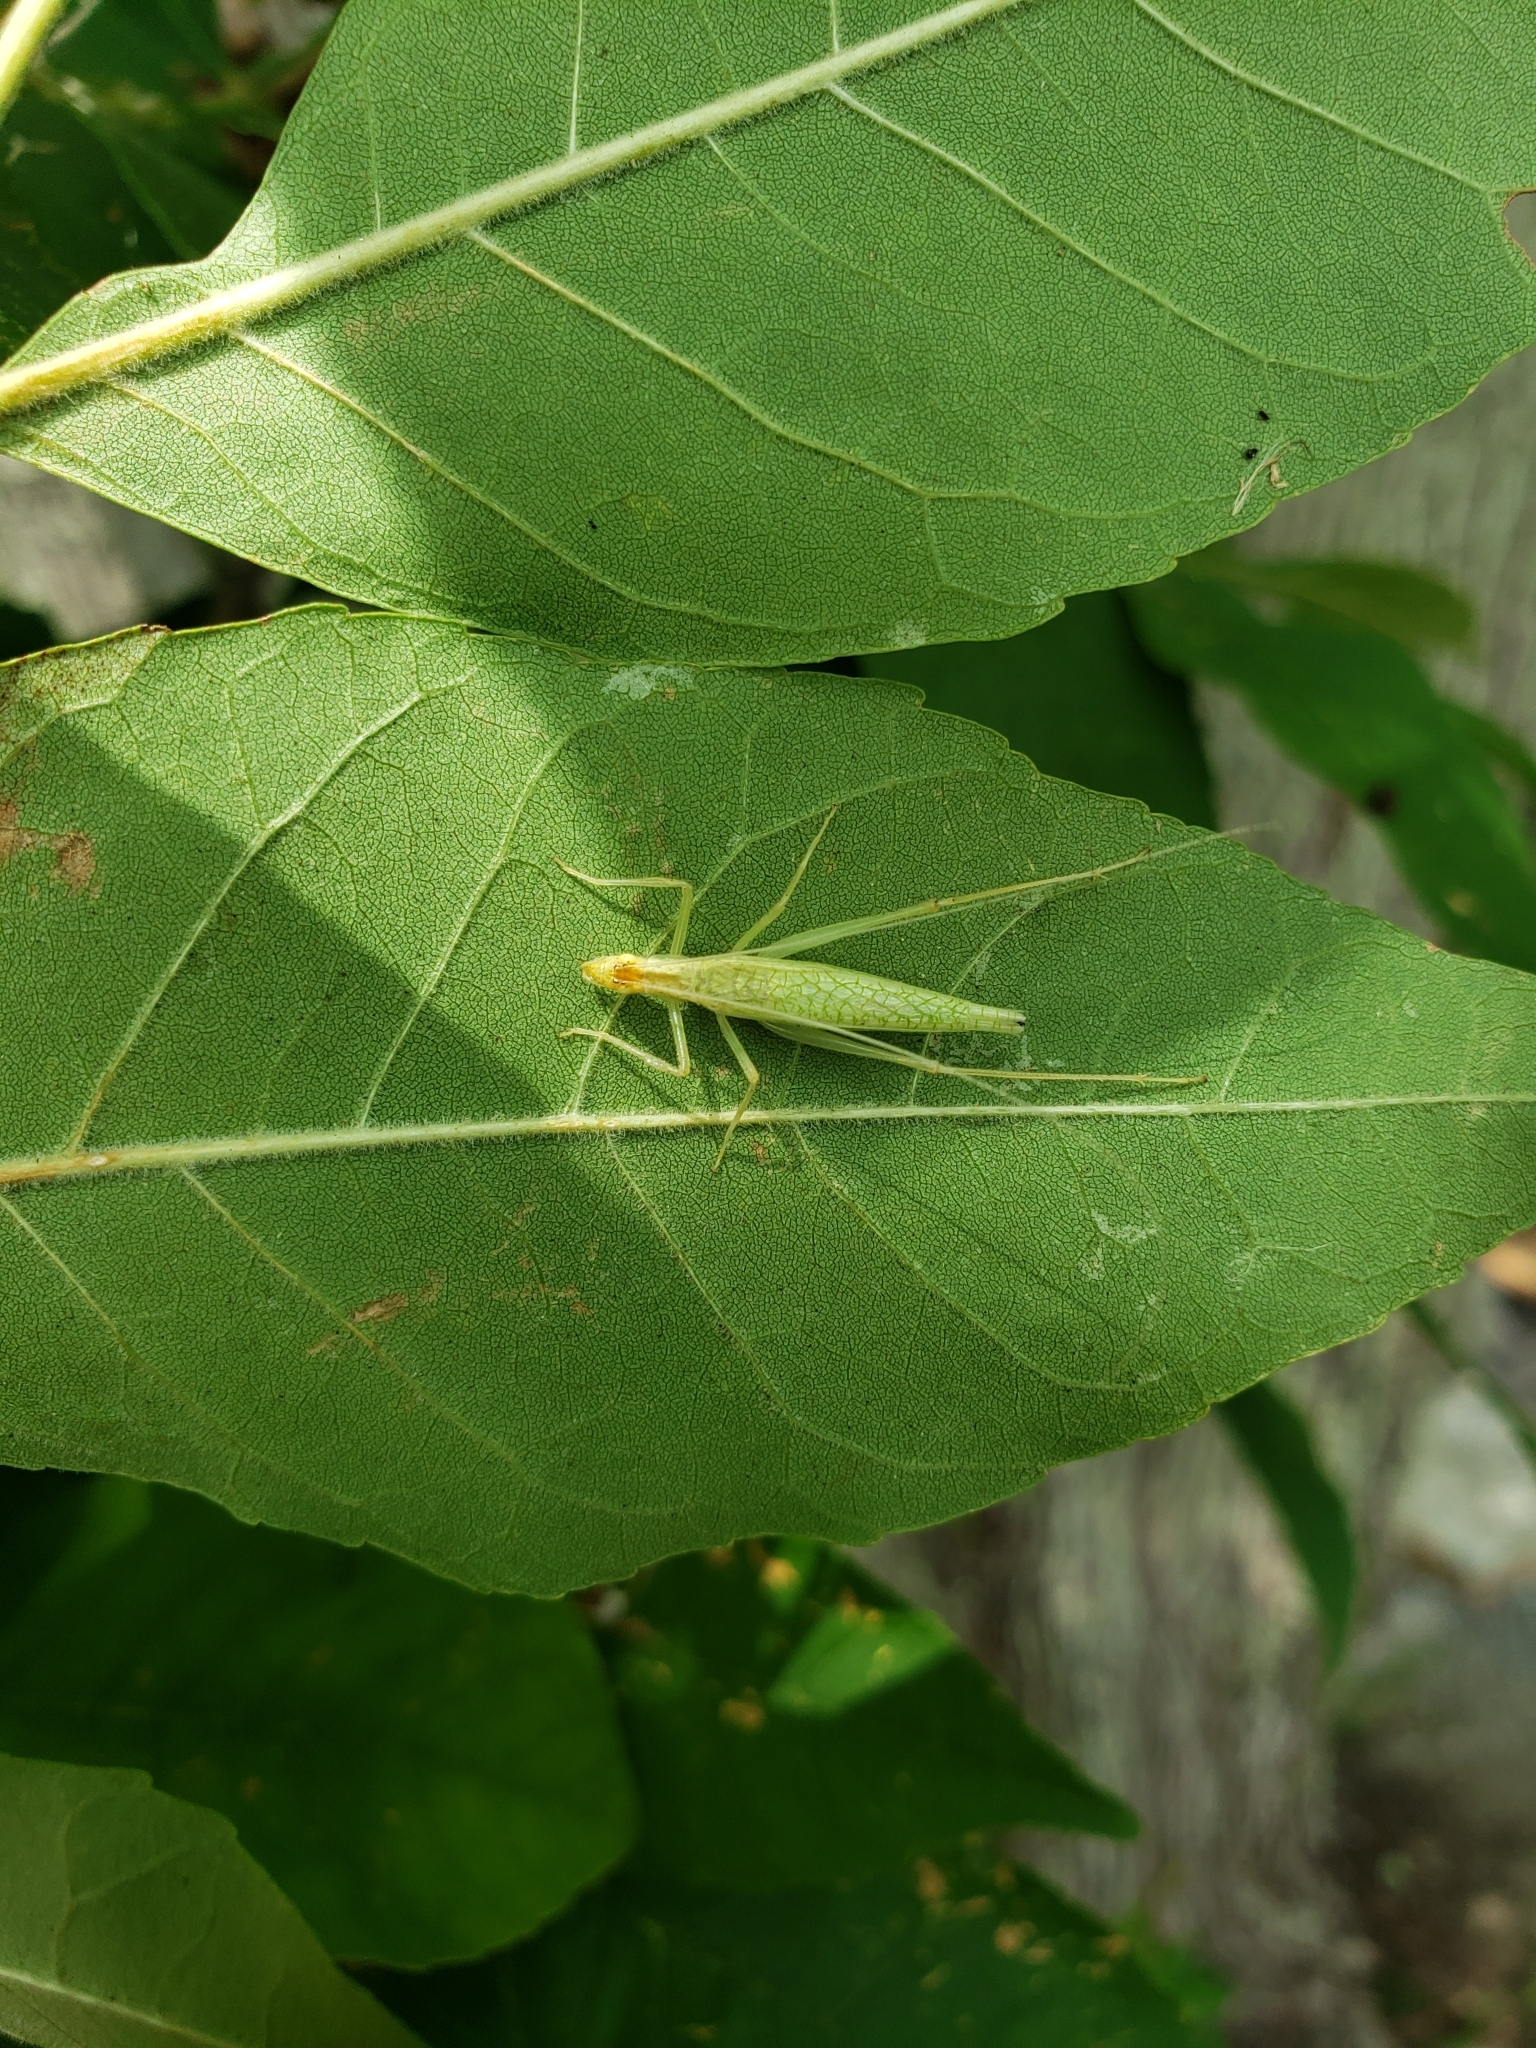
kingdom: Animalia
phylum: Arthropoda
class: Insecta
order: Orthoptera
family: Gryllidae
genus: Oecanthus
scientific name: Oecanthus niveus
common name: Narrow-winged tree cricket
